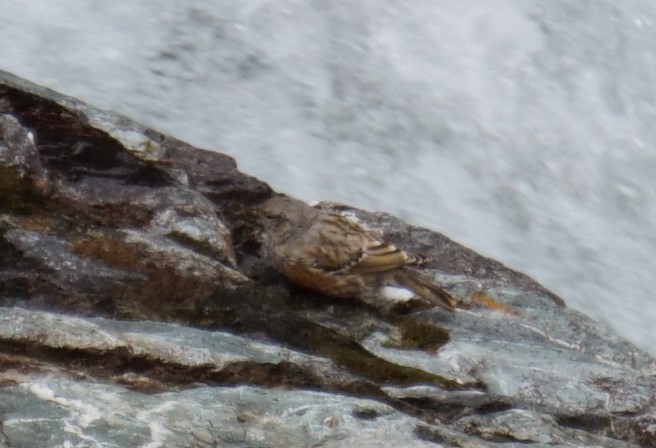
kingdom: Animalia
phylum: Chordata
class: Aves
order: Passeriformes
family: Prunellidae
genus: Prunella
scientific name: Prunella collaris
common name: Alpine accentor
